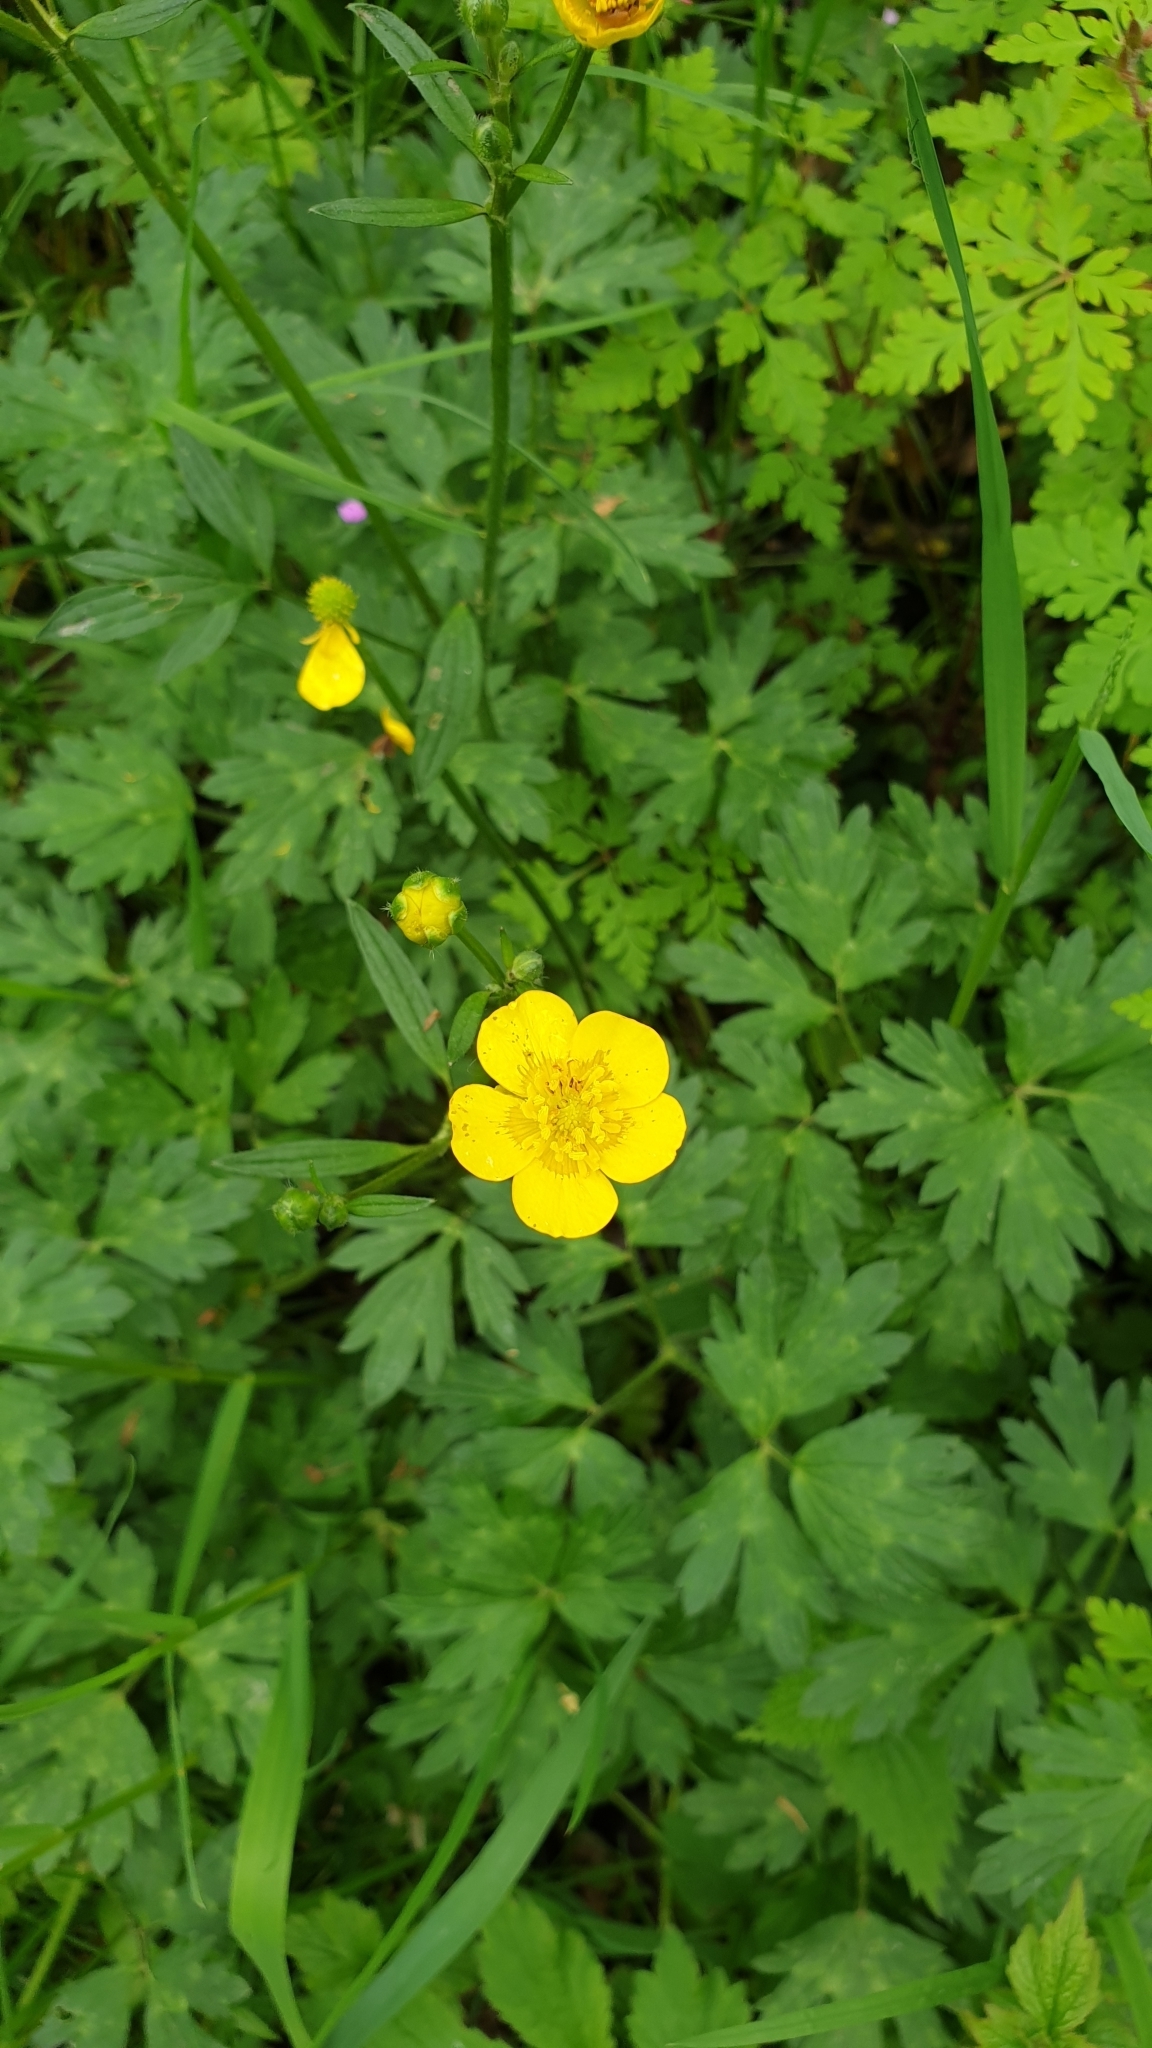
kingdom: Plantae
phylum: Tracheophyta
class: Magnoliopsida
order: Ranunculales
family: Ranunculaceae
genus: Ranunculus
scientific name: Ranunculus repens
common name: Creeping buttercup
